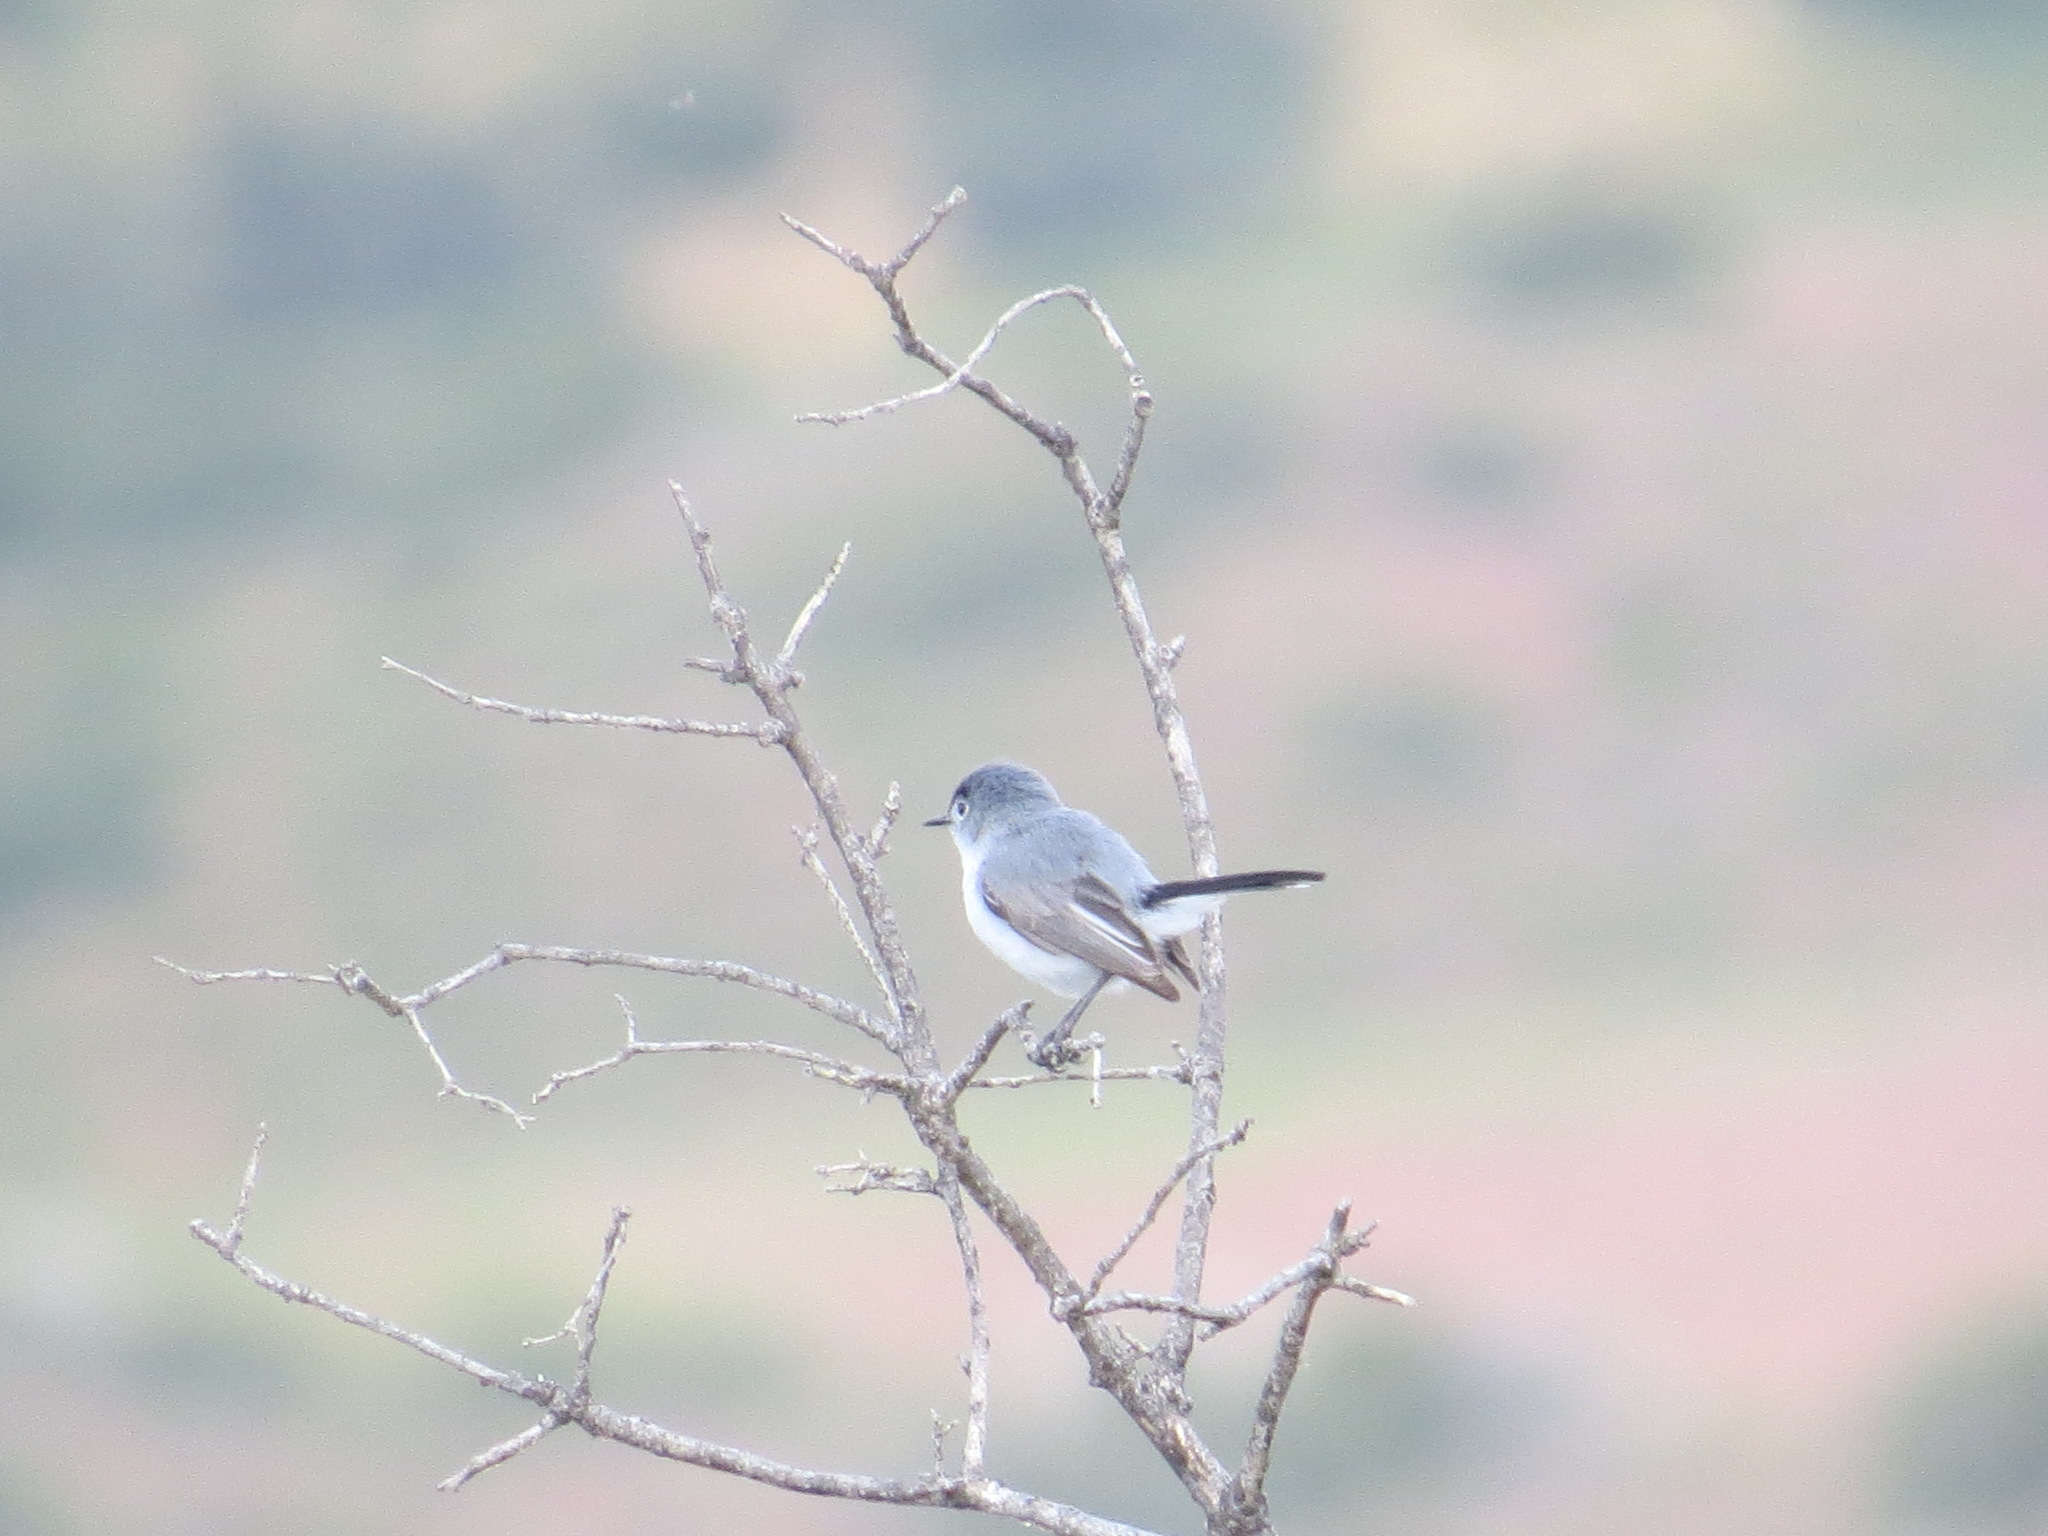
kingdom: Animalia
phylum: Chordata
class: Aves
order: Passeriformes
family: Polioptilidae
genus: Polioptila
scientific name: Polioptila caerulea
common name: Blue-gray gnatcatcher
